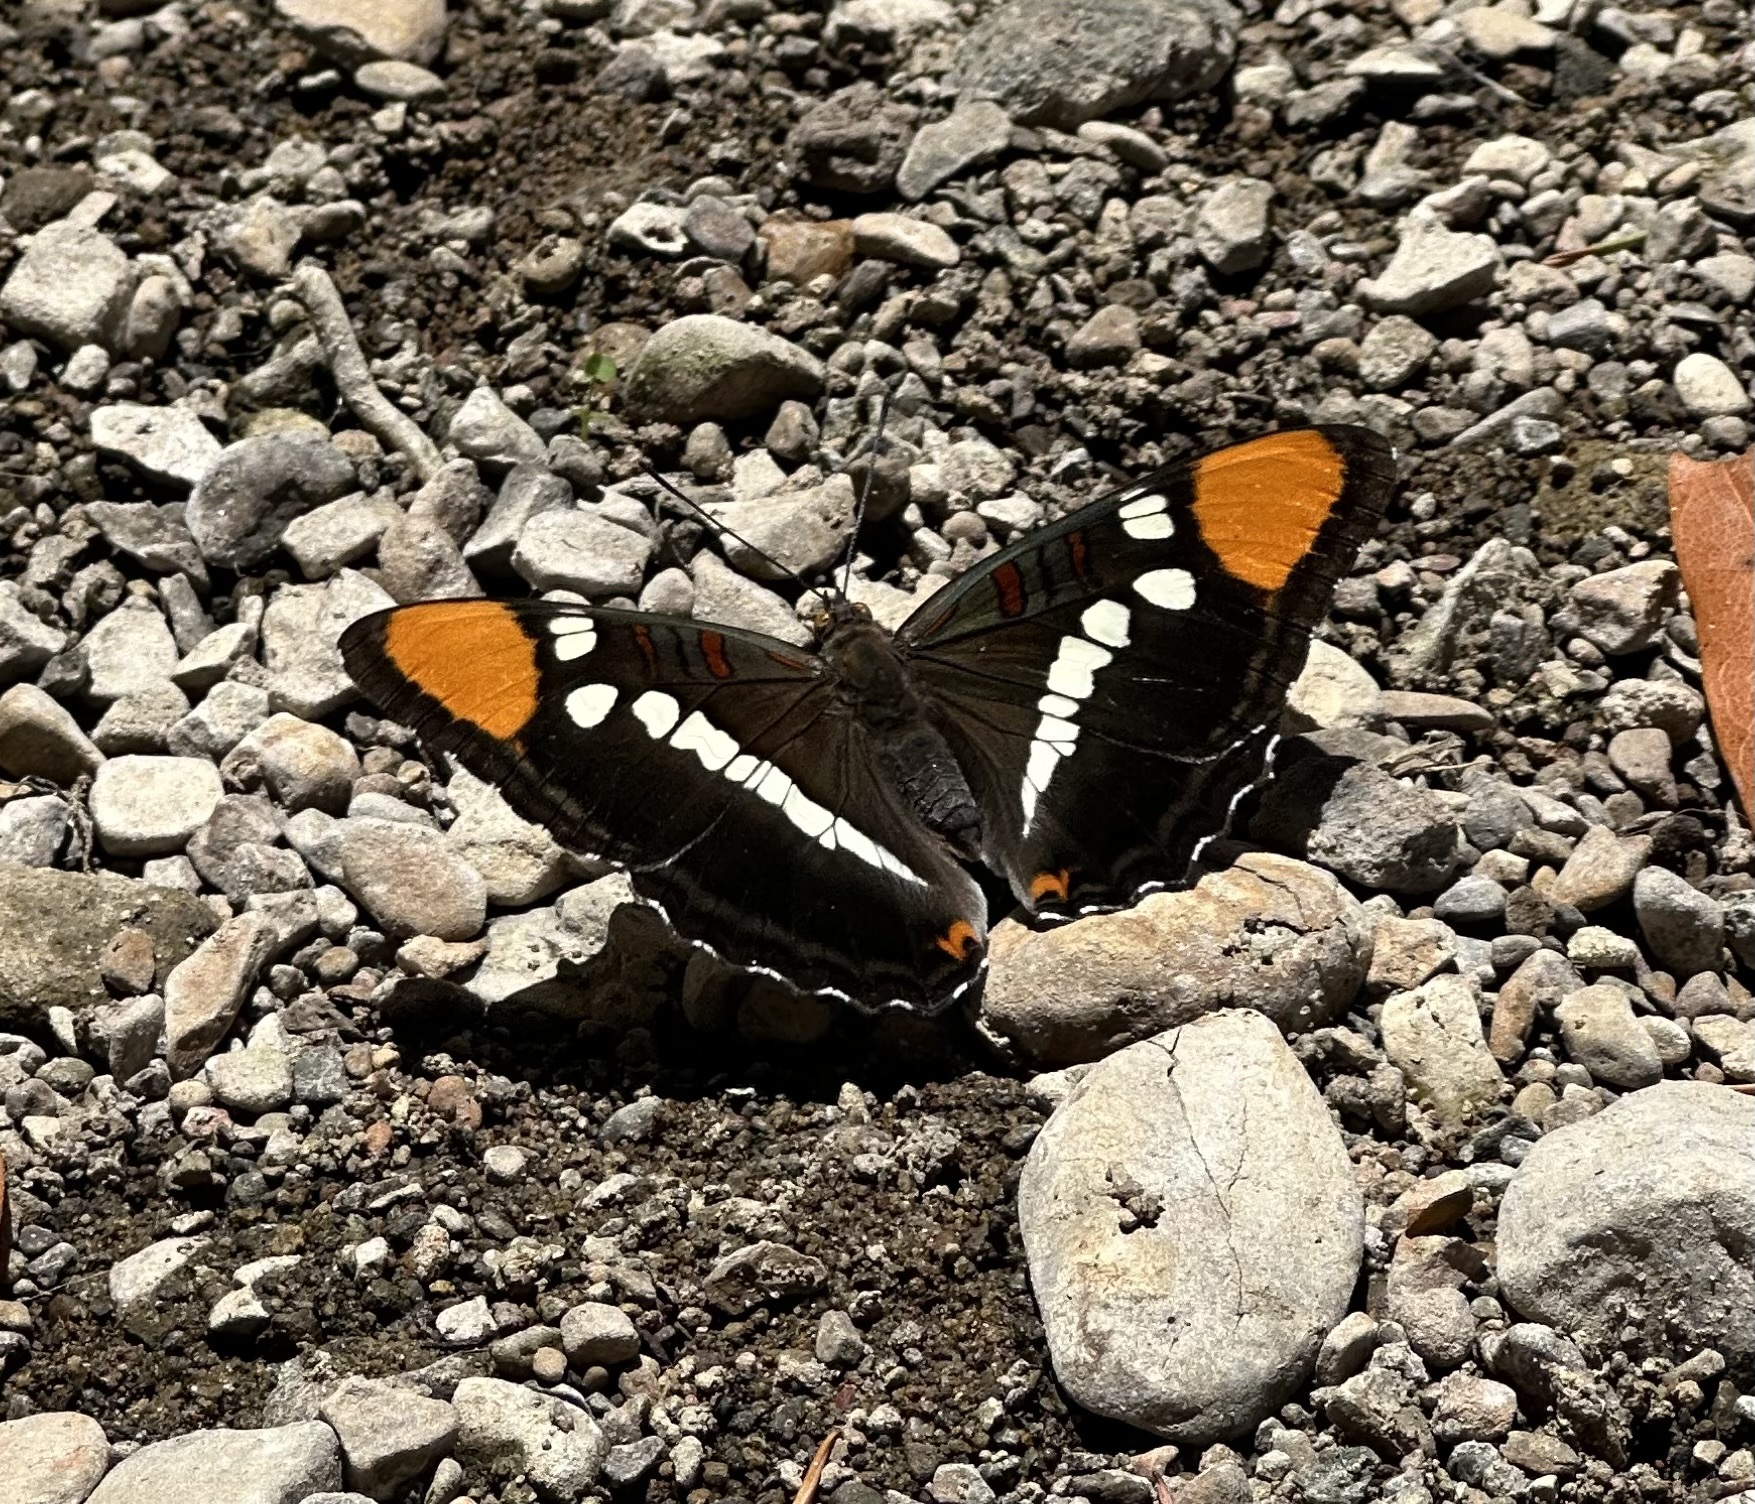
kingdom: Animalia
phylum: Arthropoda
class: Insecta
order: Lepidoptera
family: Nymphalidae
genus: Limenitis
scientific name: Limenitis bredowii
